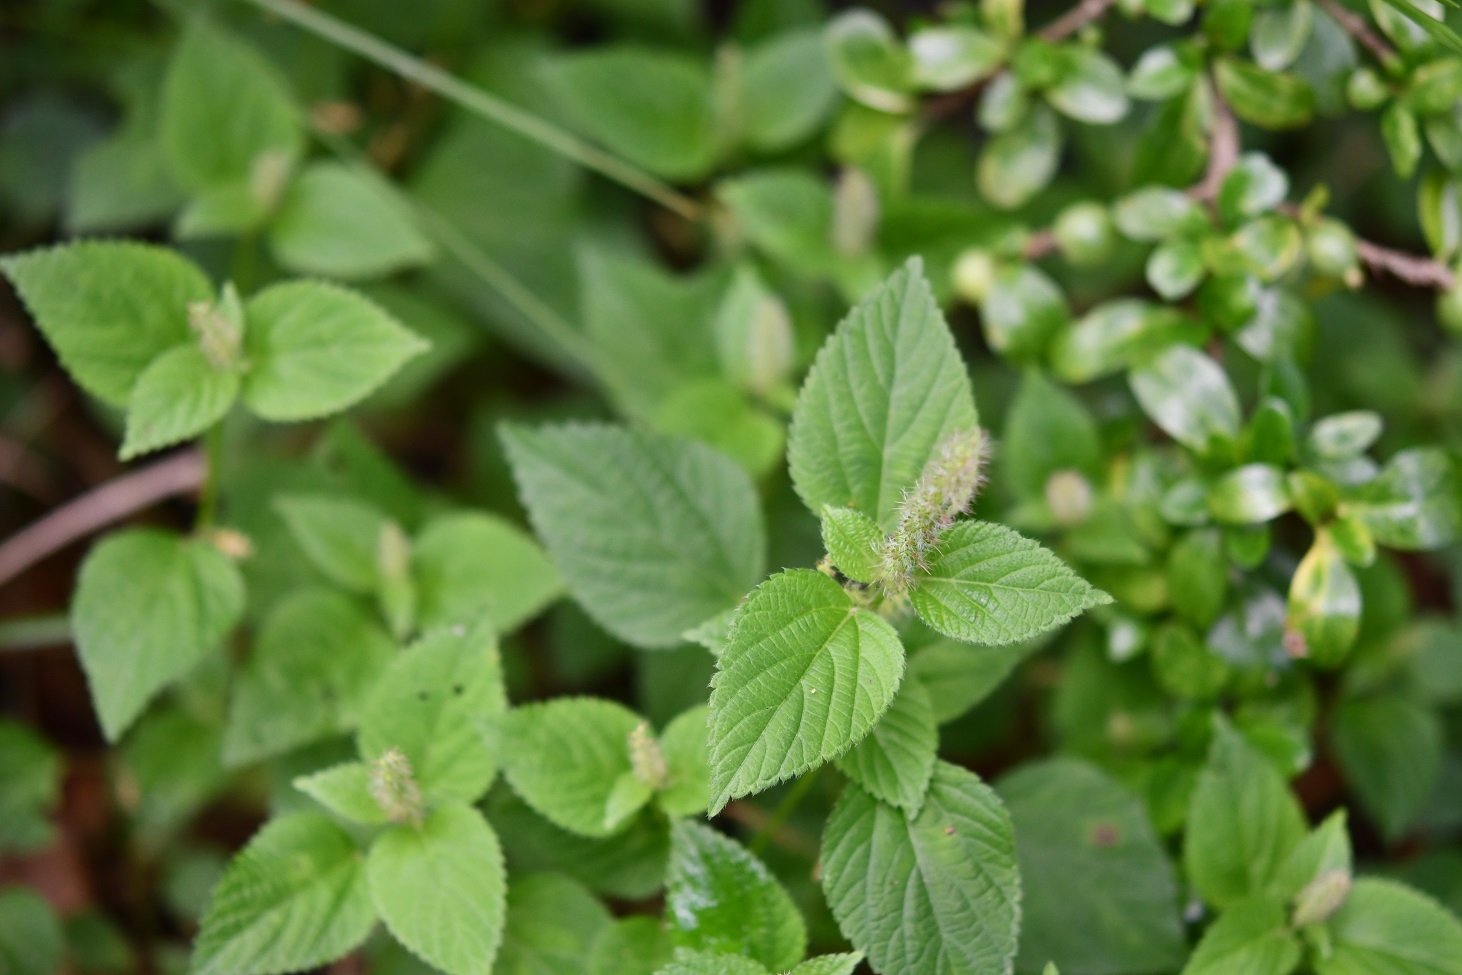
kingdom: Plantae
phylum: Tracheophyta
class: Magnoliopsida
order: Malpighiales
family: Euphorbiaceae
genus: Acalypha
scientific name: Acalypha phleoides
